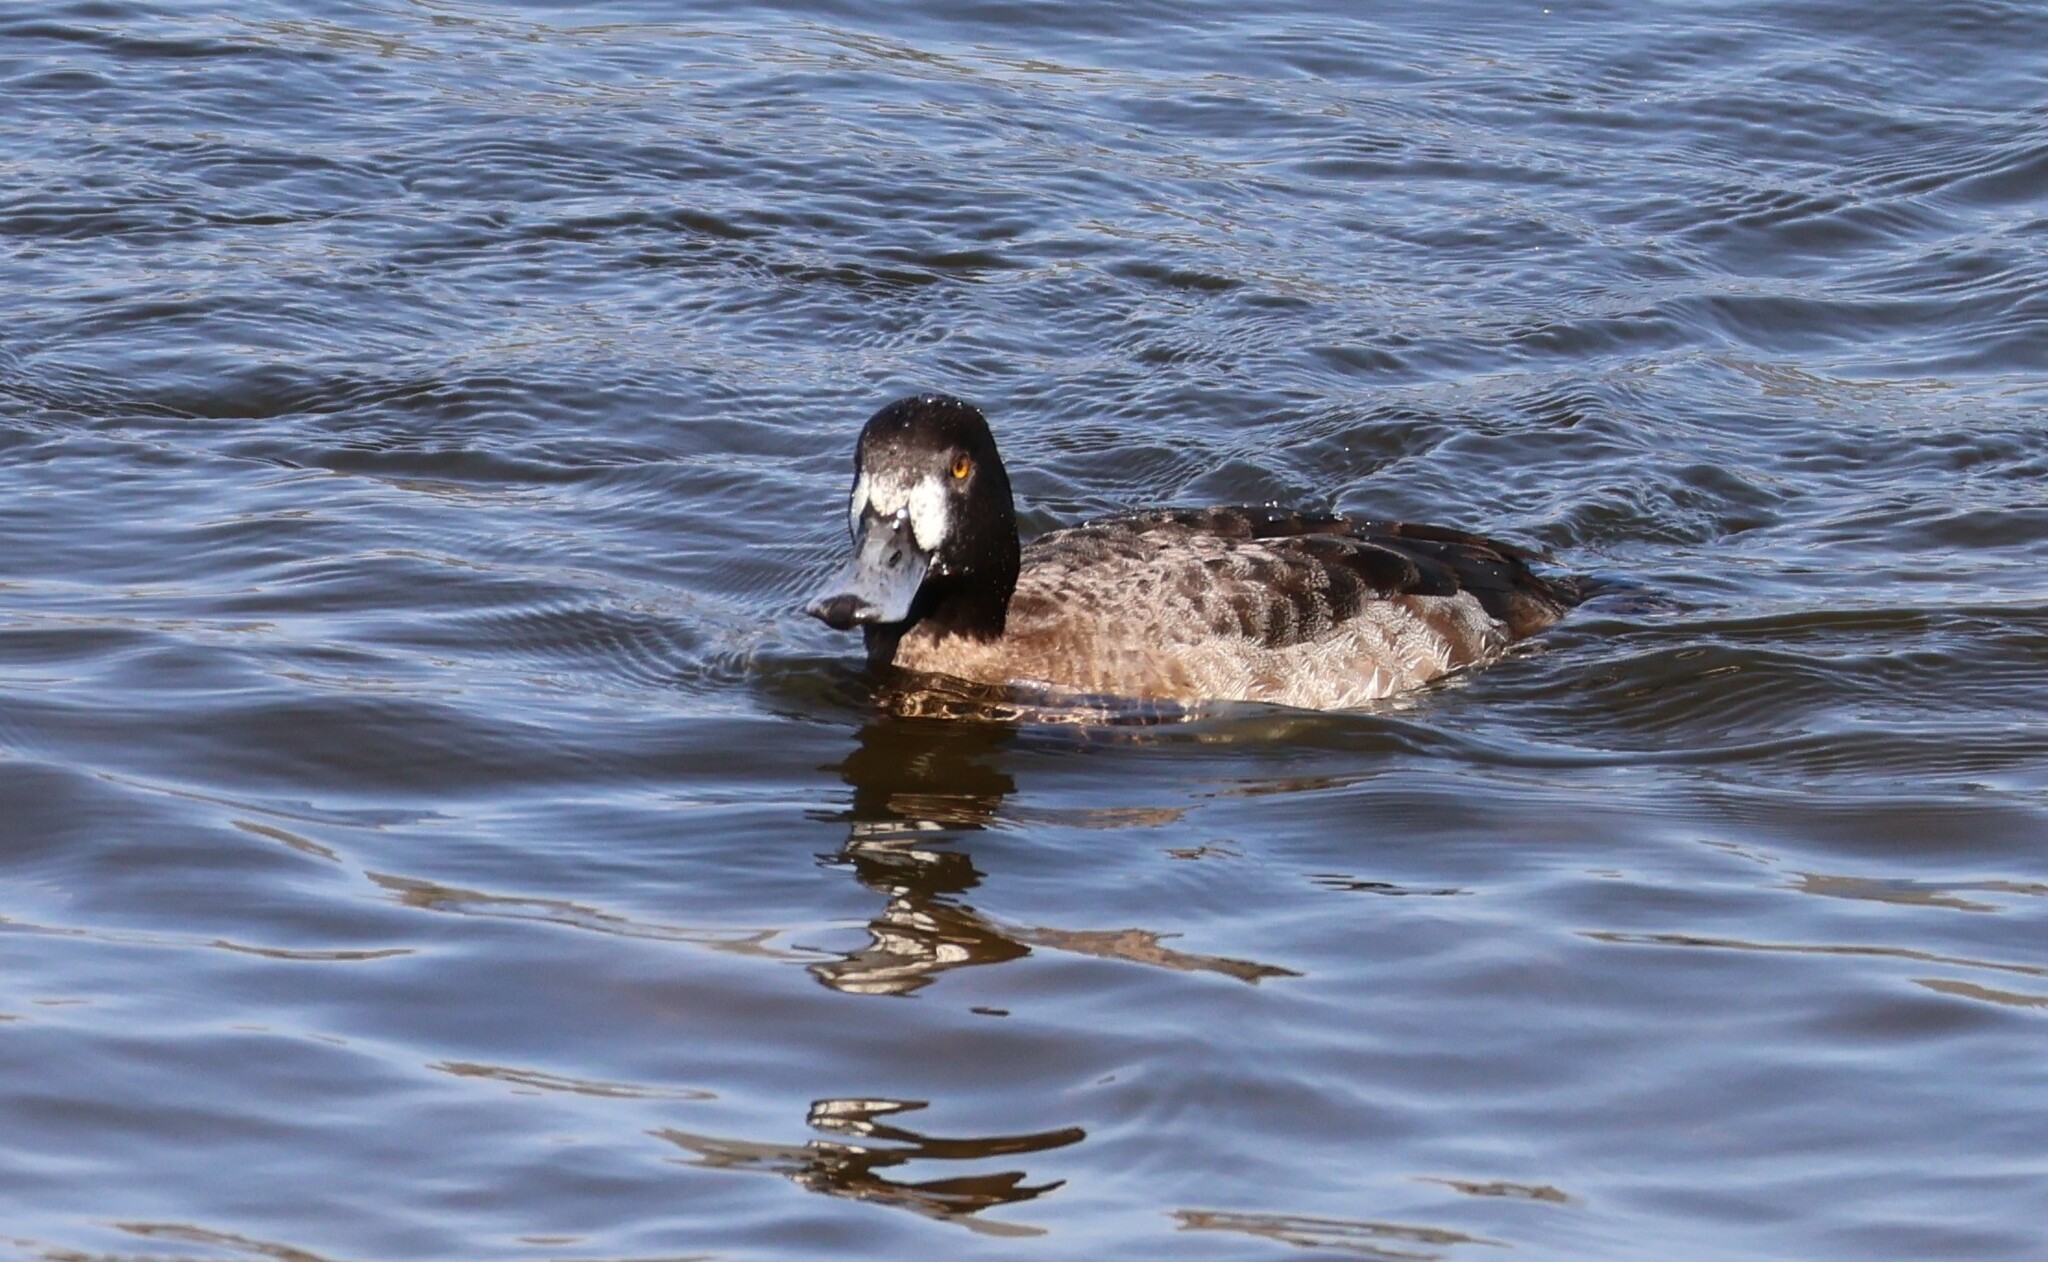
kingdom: Animalia
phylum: Chordata
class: Aves
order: Anseriformes
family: Anatidae
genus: Aythya
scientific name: Aythya marila
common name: Greater scaup
